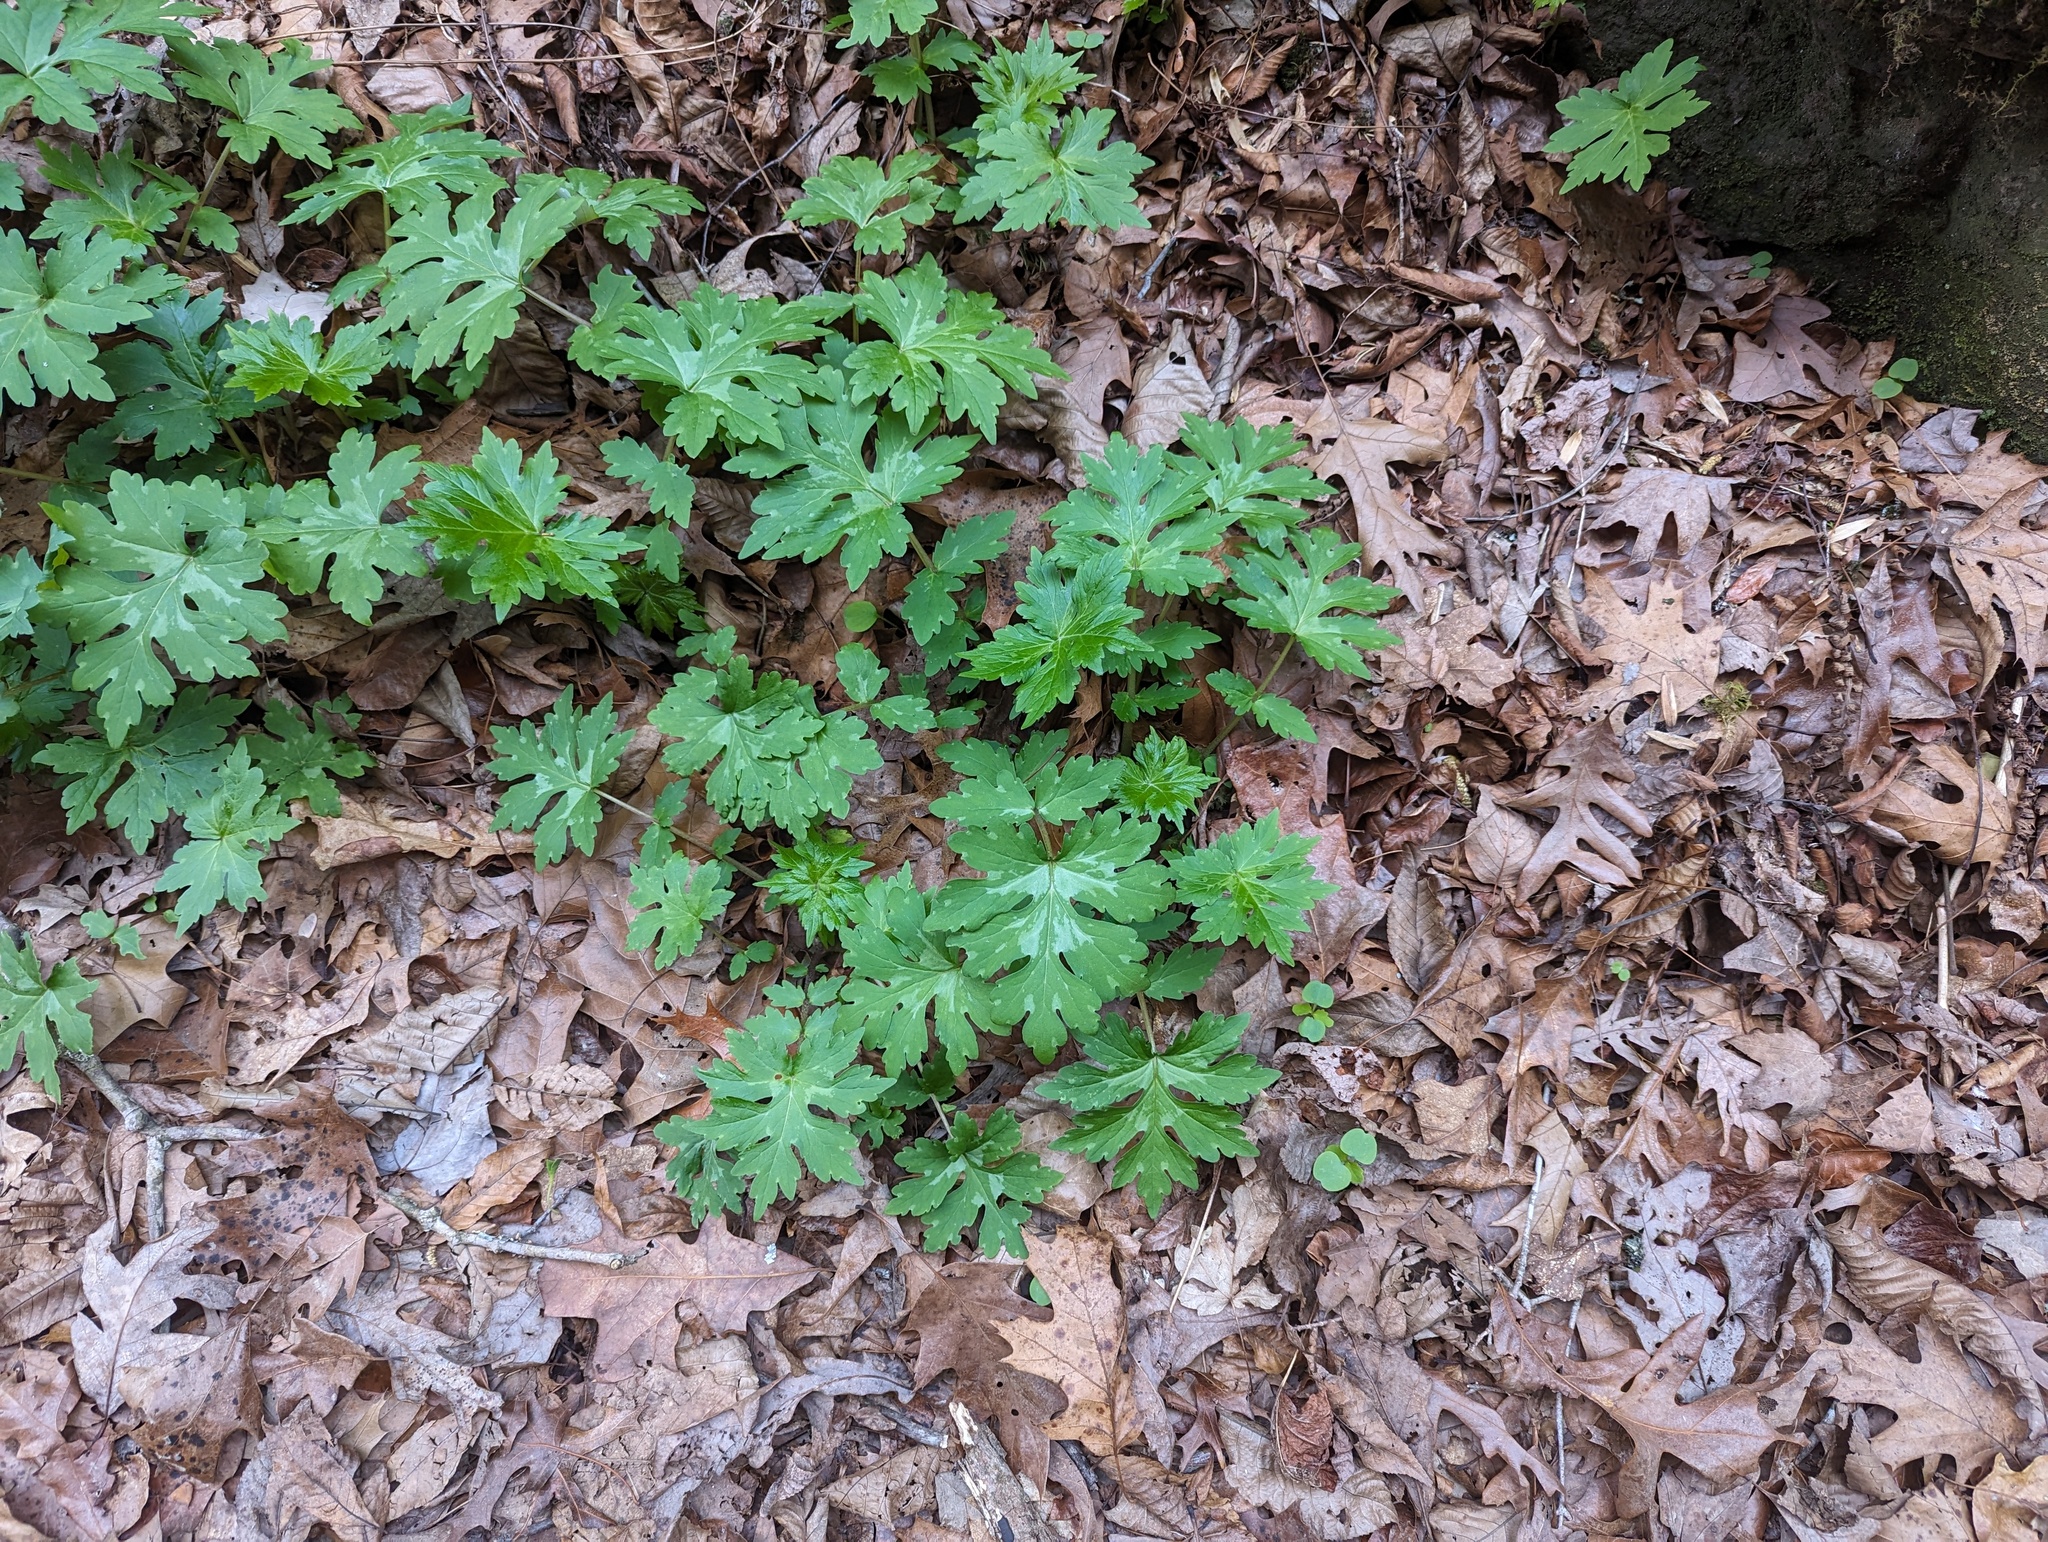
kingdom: Plantae
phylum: Tracheophyta
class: Magnoliopsida
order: Boraginales
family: Hydrophyllaceae
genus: Hydrophyllum
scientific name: Hydrophyllum canadense
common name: Canada waterleaf
